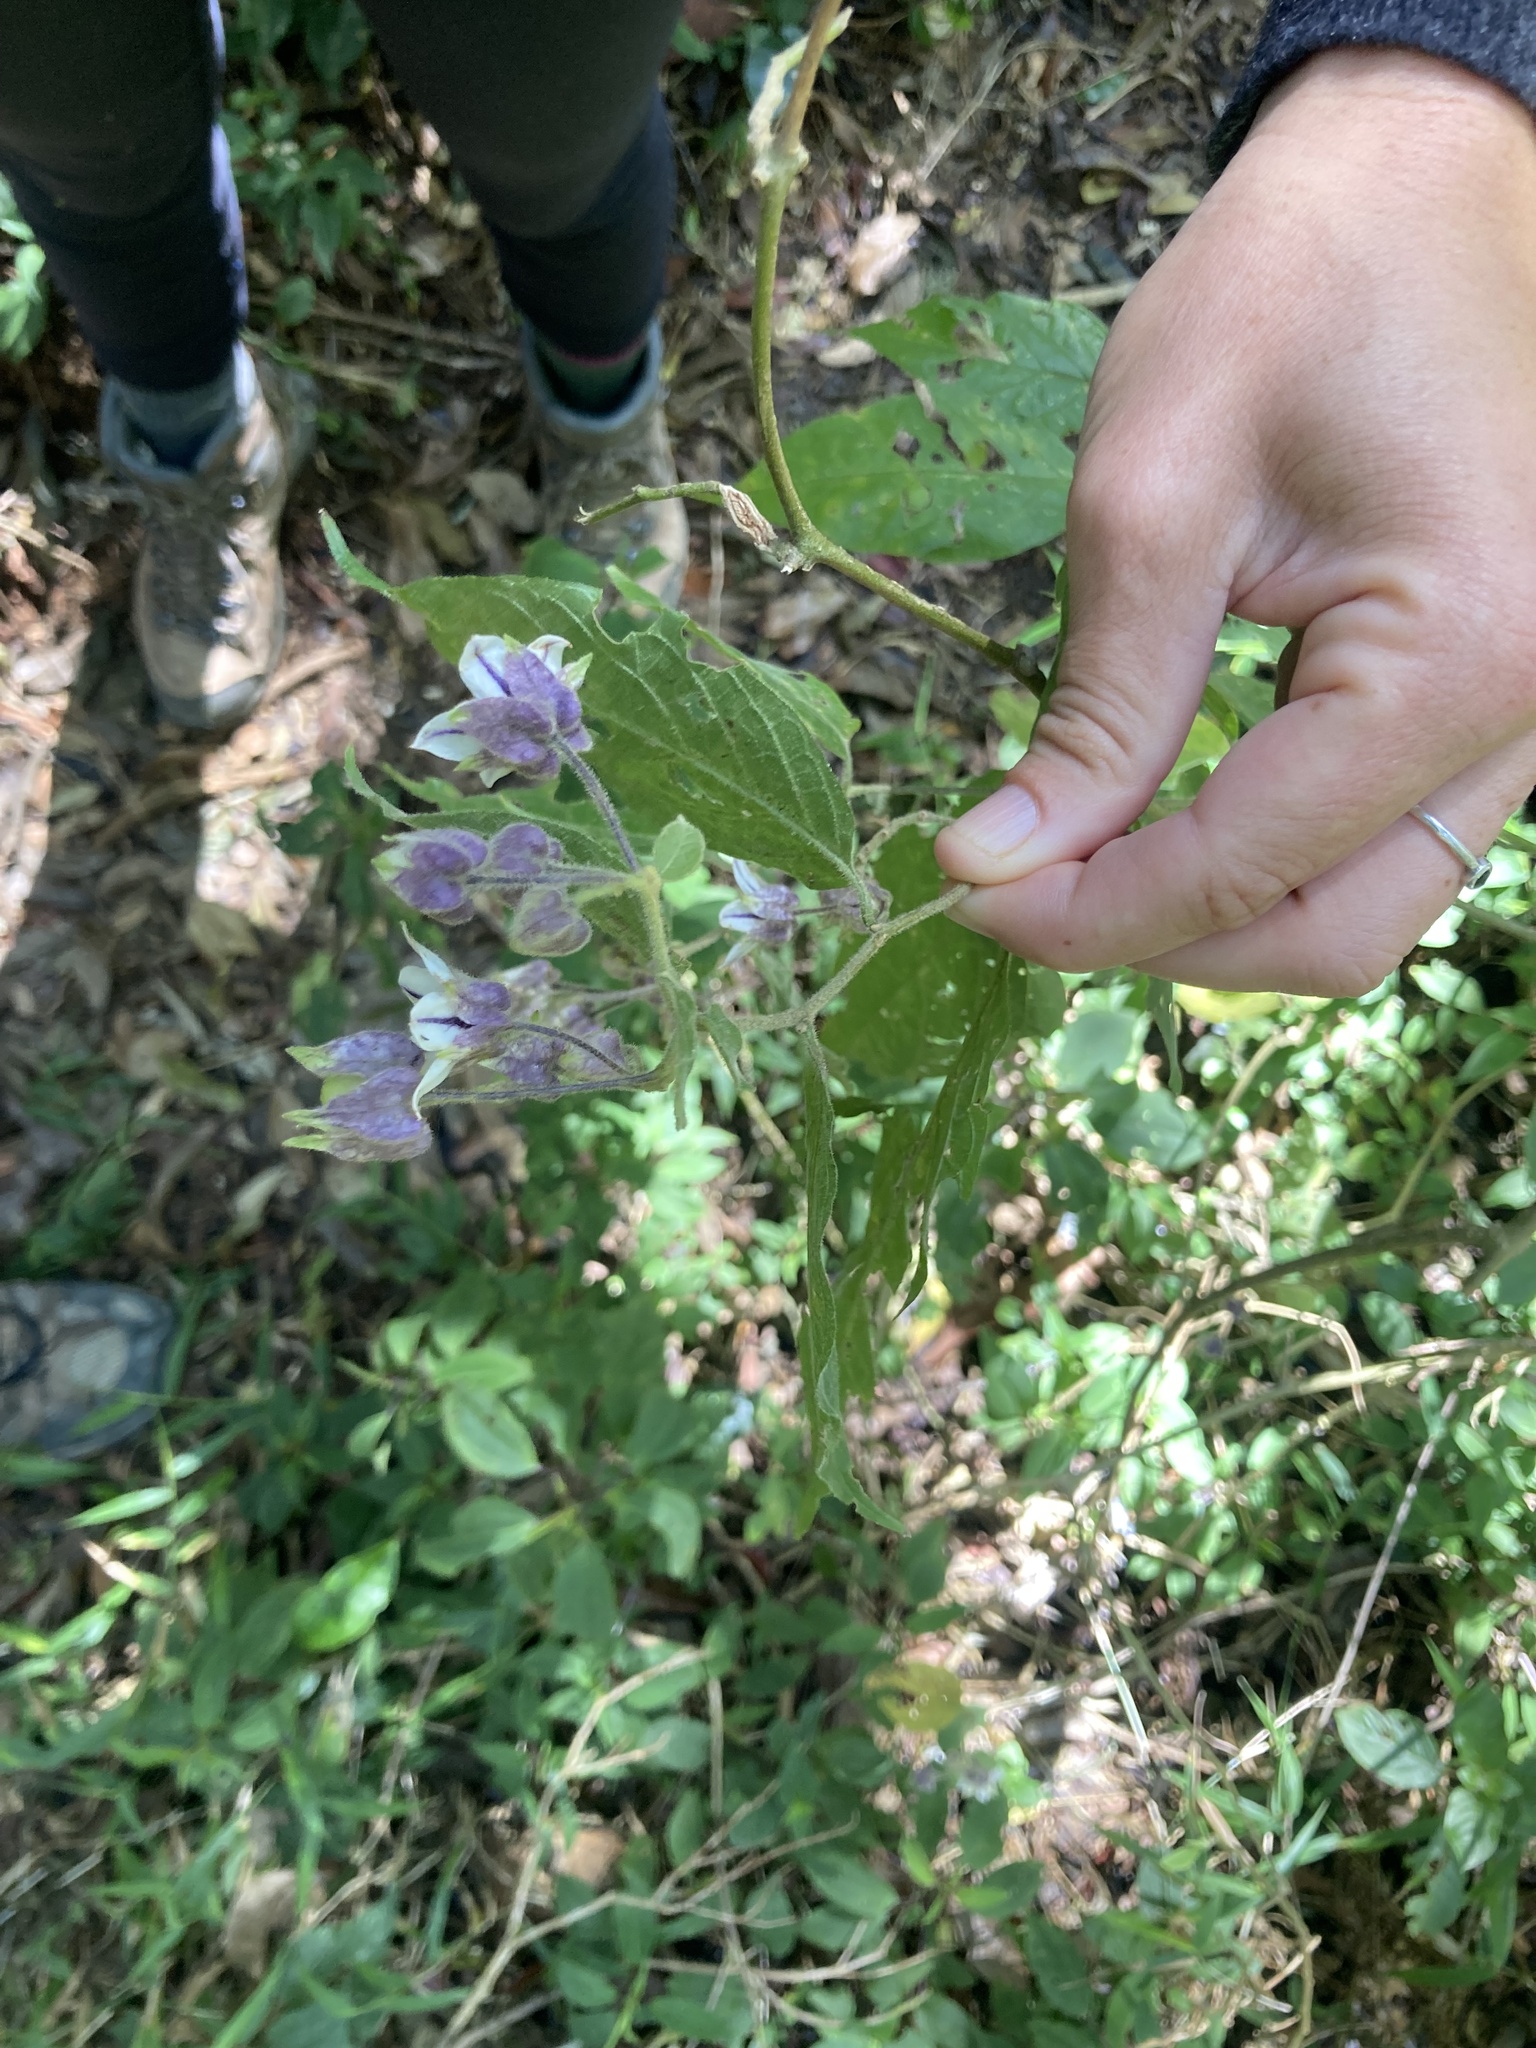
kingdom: Plantae
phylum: Tracheophyta
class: Magnoliopsida
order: Solanales
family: Solanaceae
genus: Solanum
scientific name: Solanum didymum
